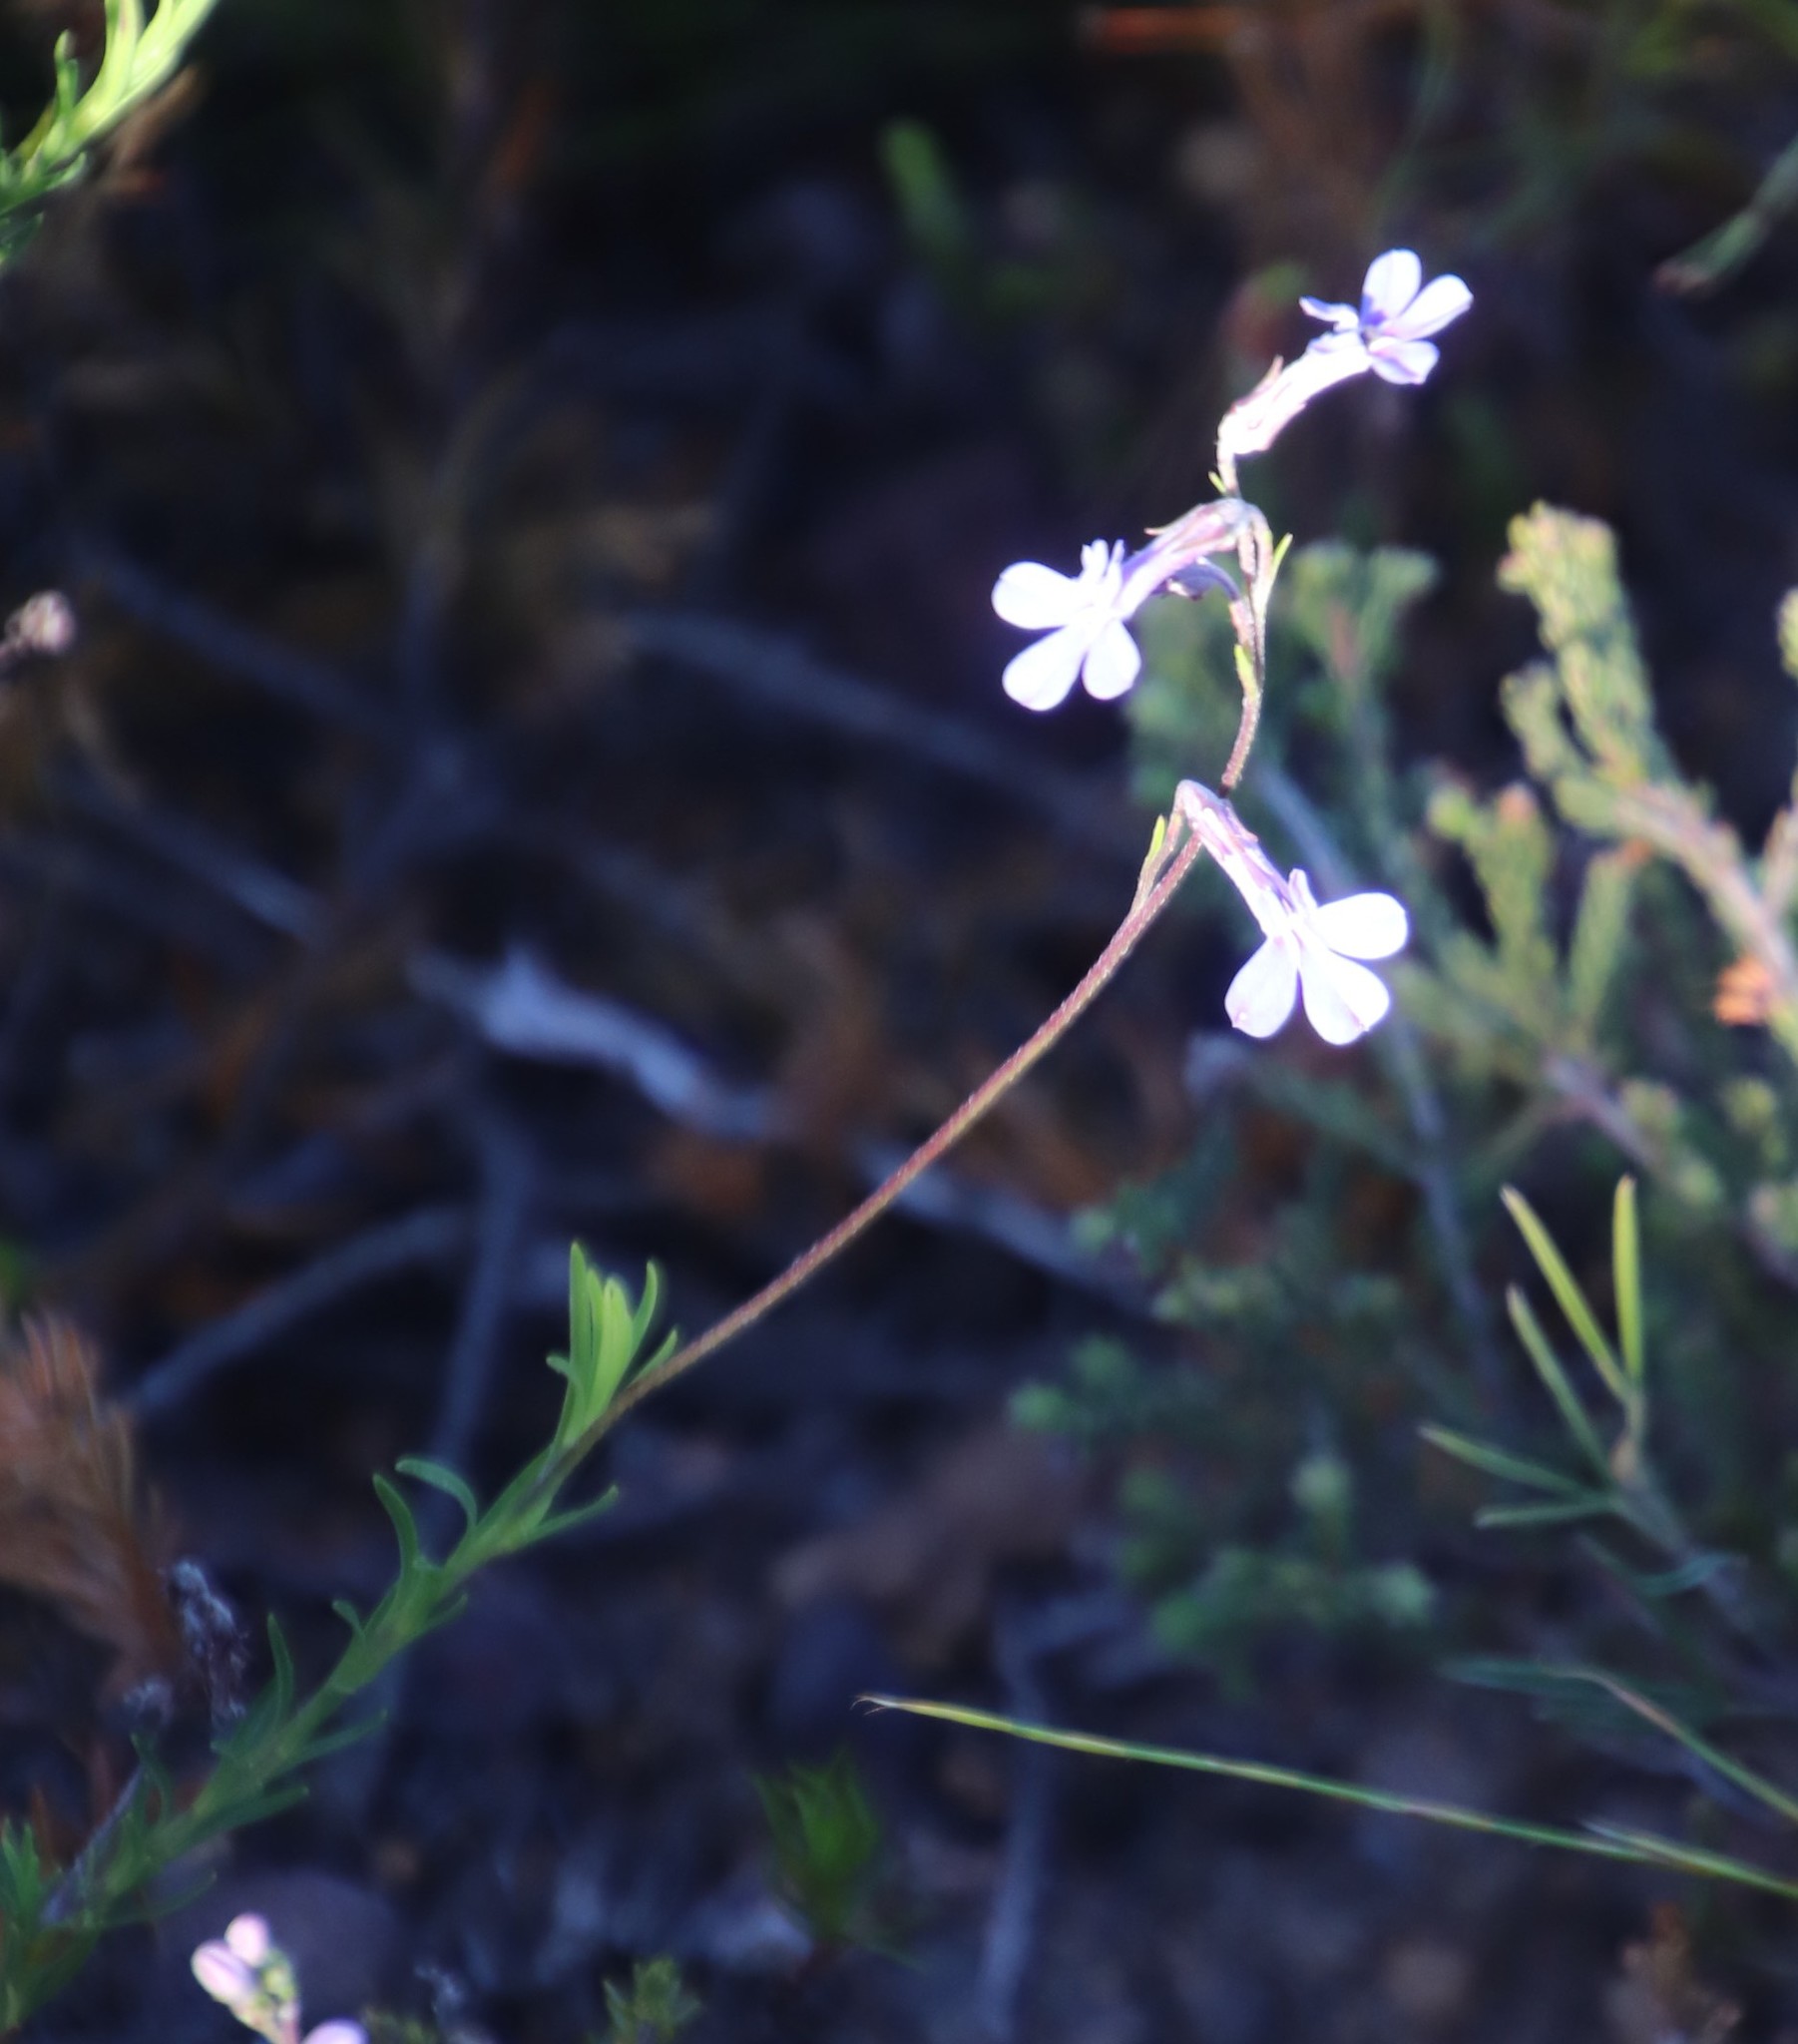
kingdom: Plantae
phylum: Tracheophyta
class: Magnoliopsida
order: Asterales
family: Campanulaceae
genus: Lobelia
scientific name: Lobelia pinifolia
